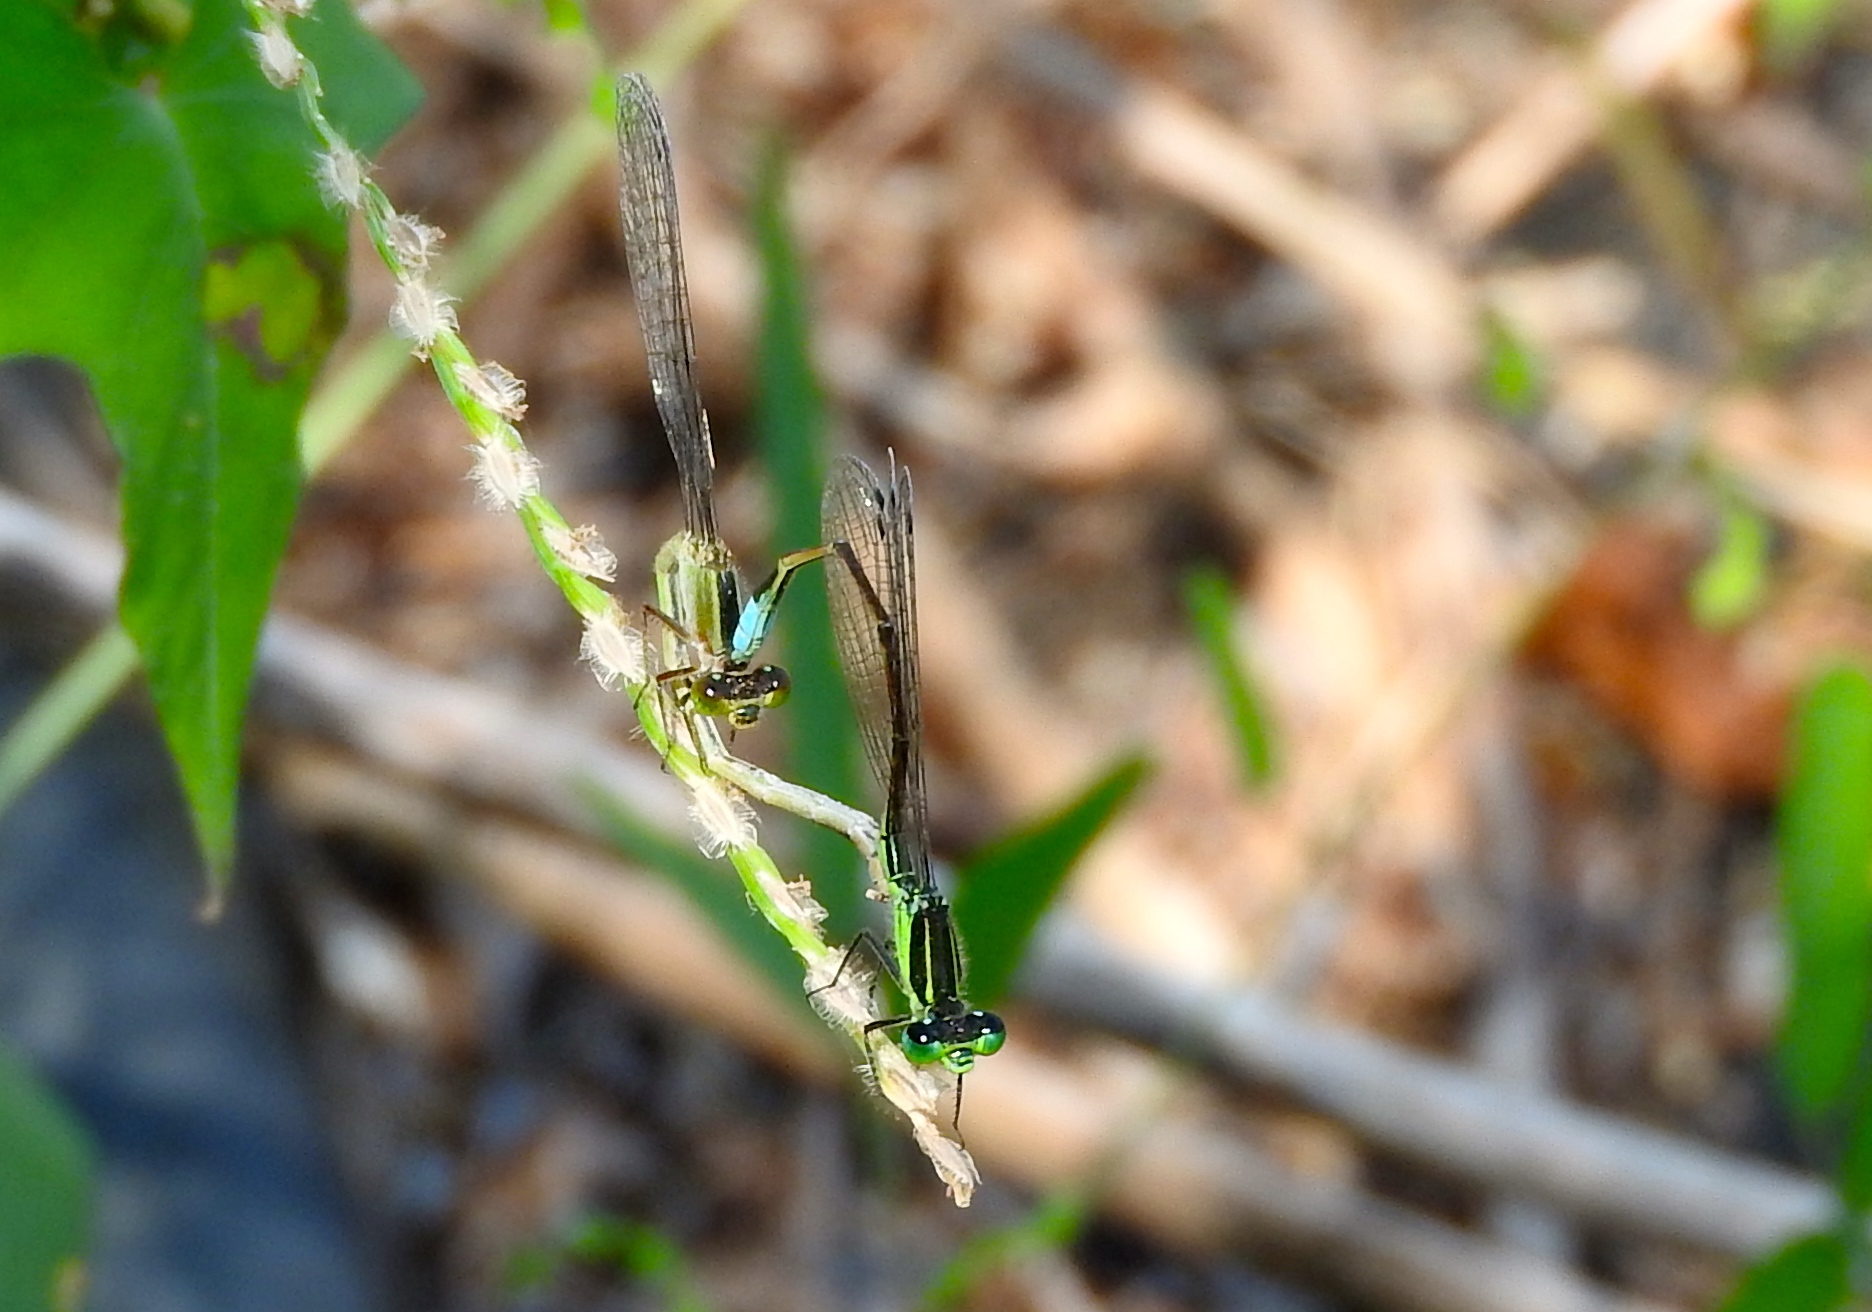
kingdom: Animalia
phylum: Arthropoda
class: Insecta
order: Odonata
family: Coenagrionidae
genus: Ischnura
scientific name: Ischnura ramburii
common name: Rambur's forktail
